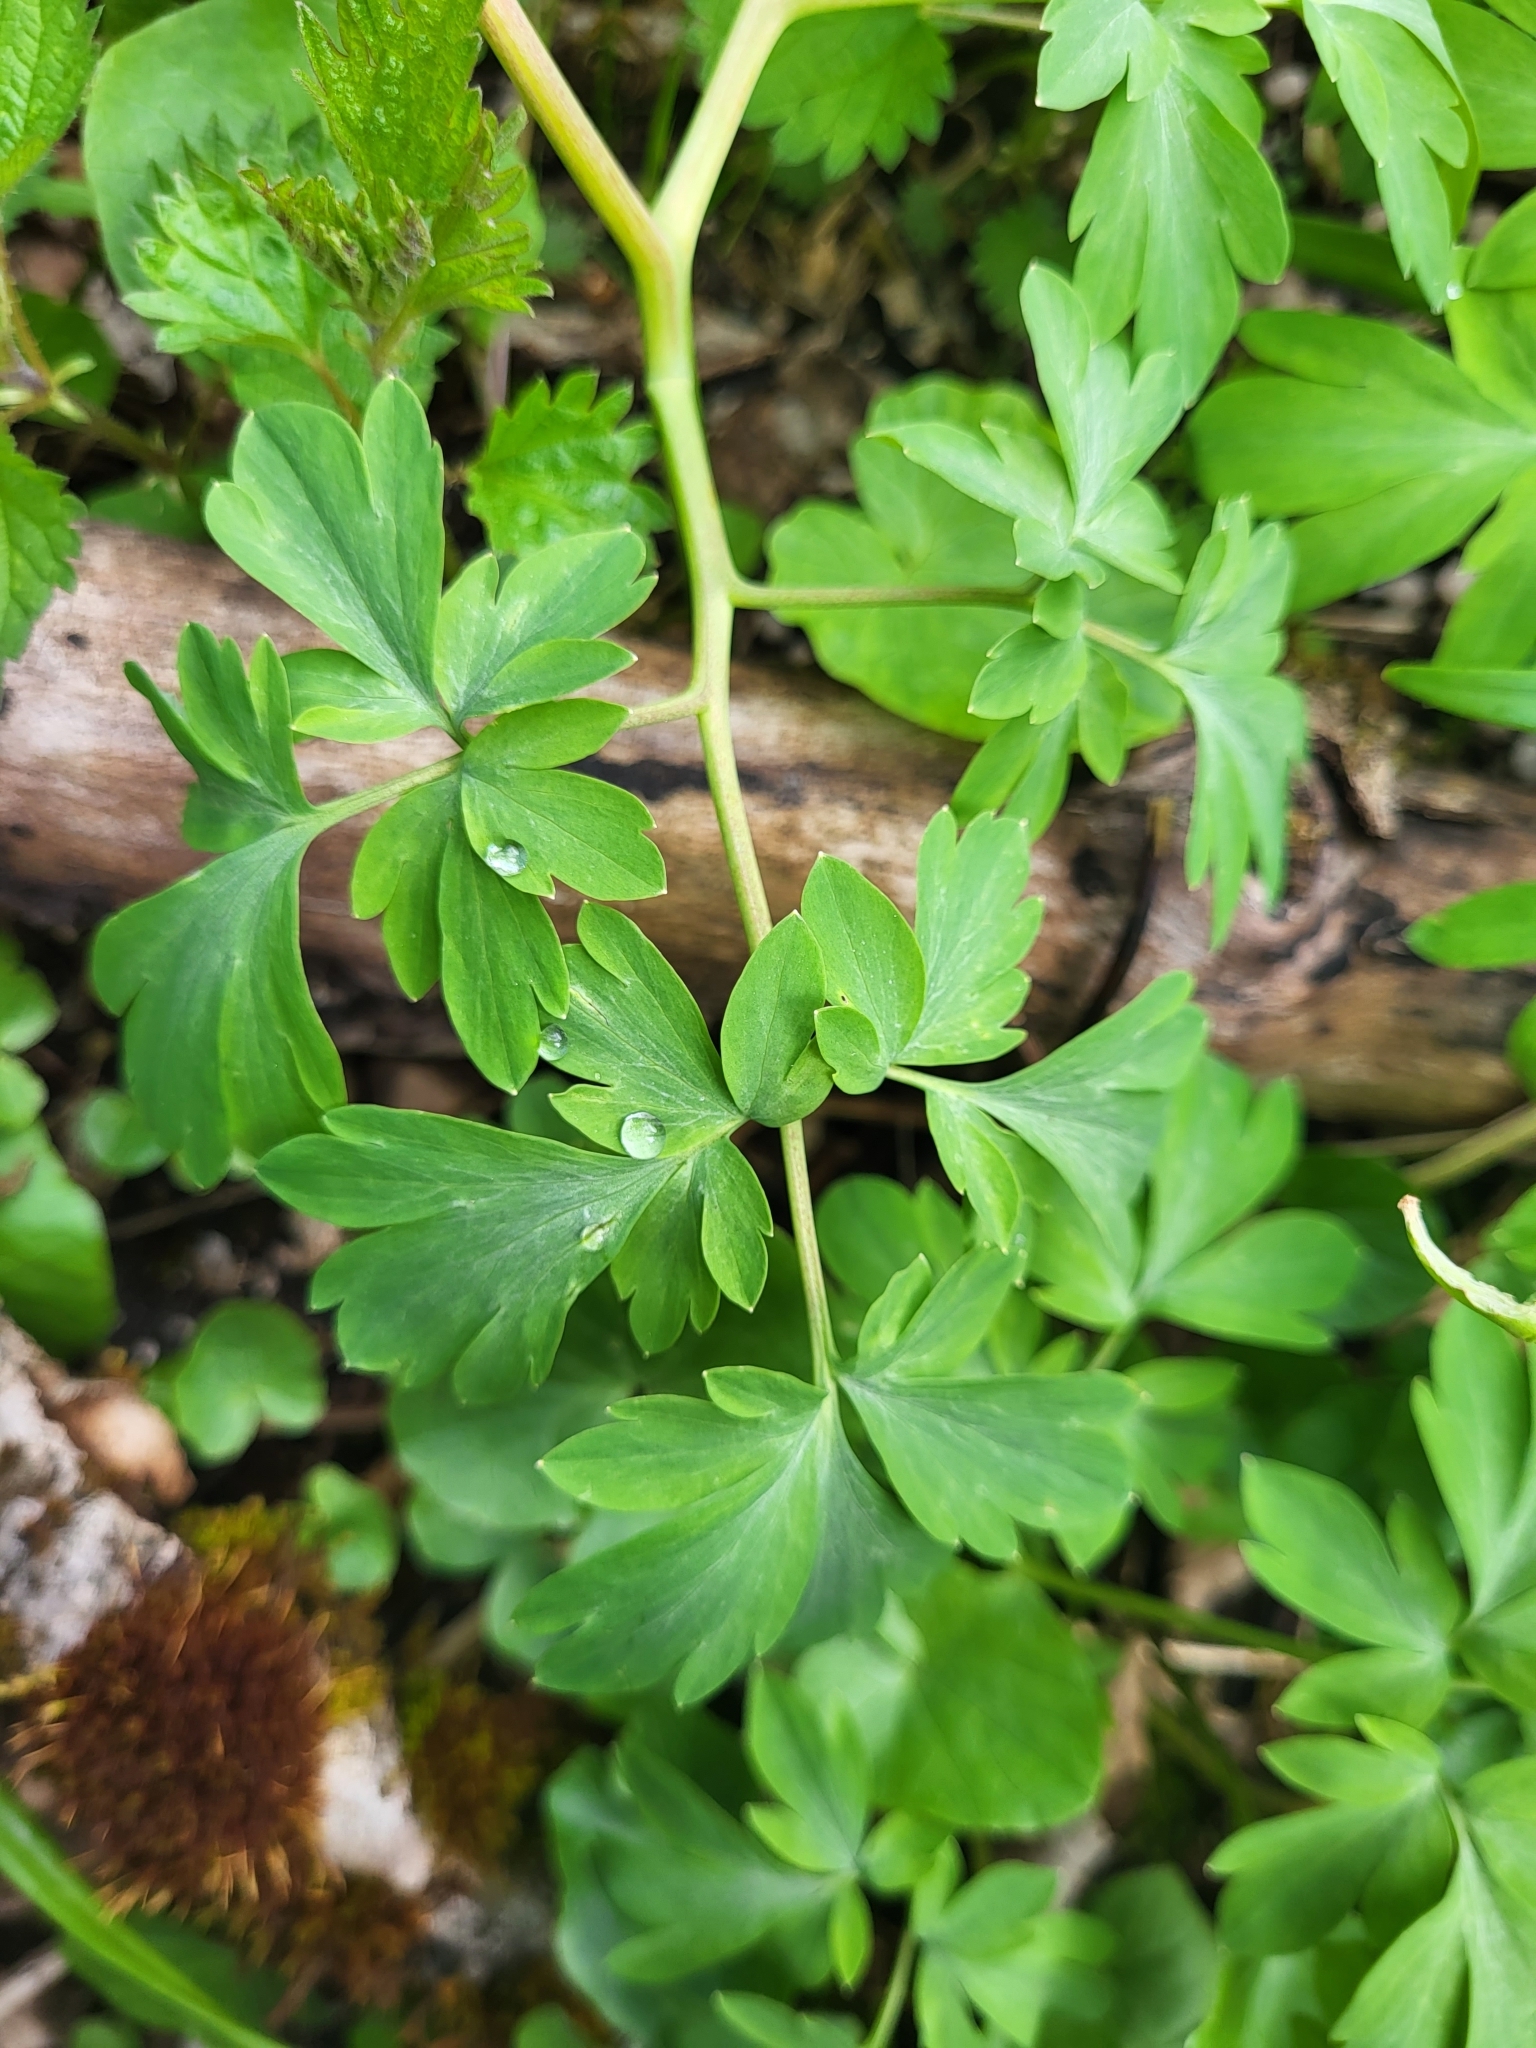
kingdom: Plantae
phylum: Tracheophyta
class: Magnoliopsida
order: Ranunculales
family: Papaveraceae
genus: Corydalis
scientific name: Corydalis cava
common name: Hollowroot
